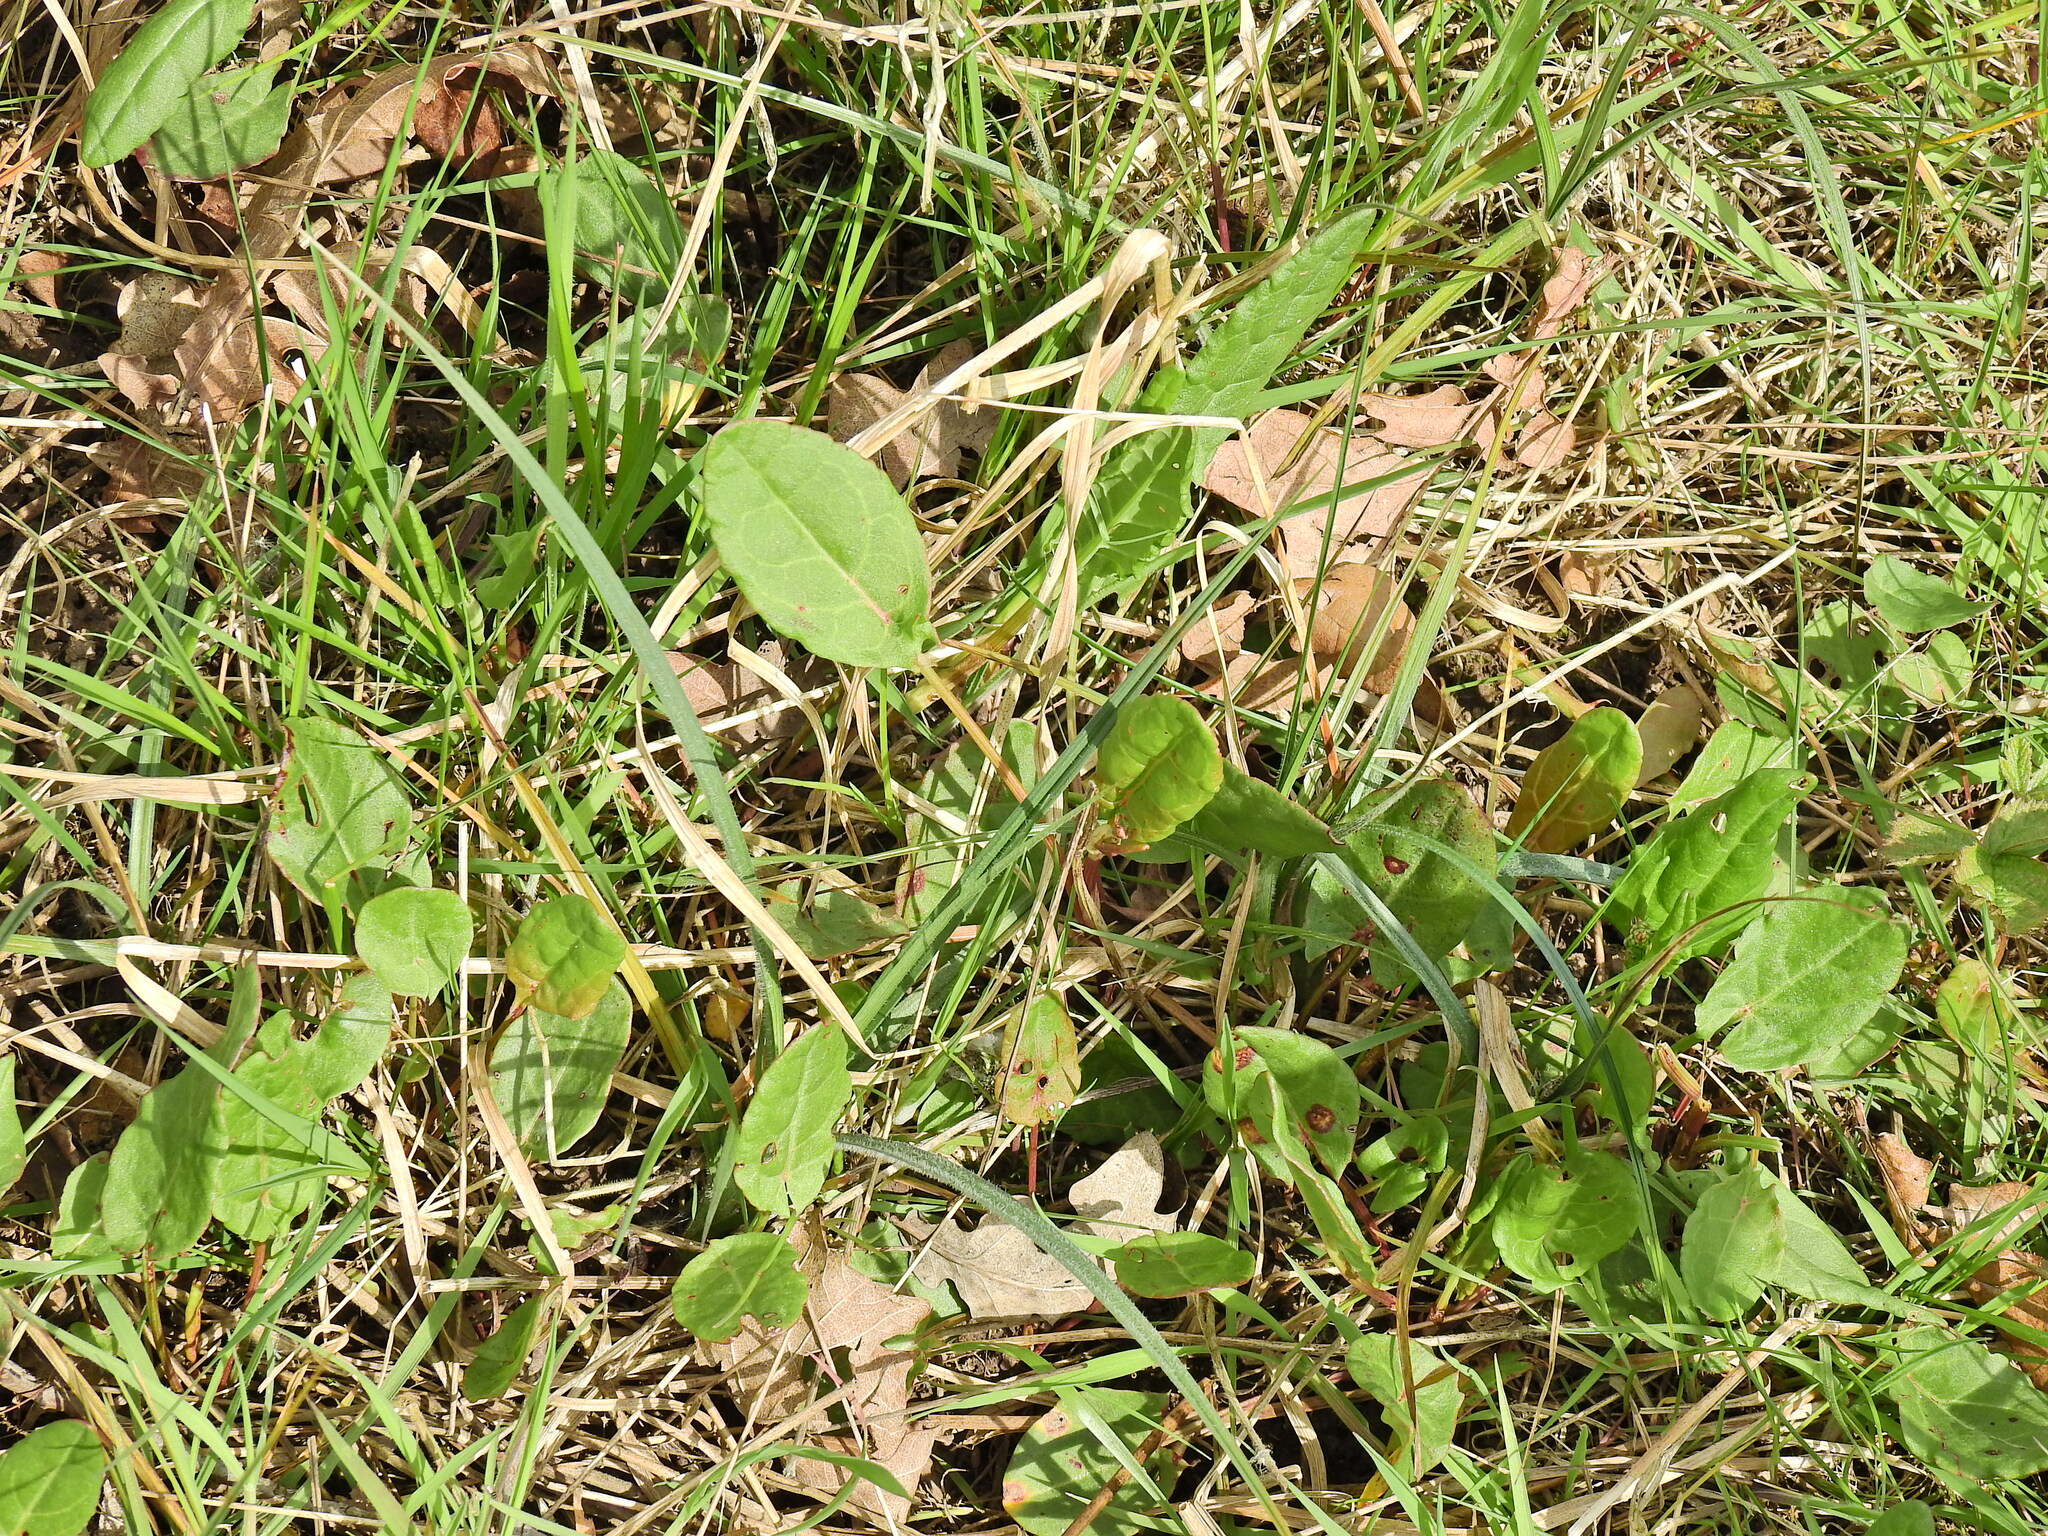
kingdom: Plantae
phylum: Tracheophyta
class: Magnoliopsida
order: Caryophyllales
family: Polygonaceae
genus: Rumex
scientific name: Rumex acetosa
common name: Garden sorrel
